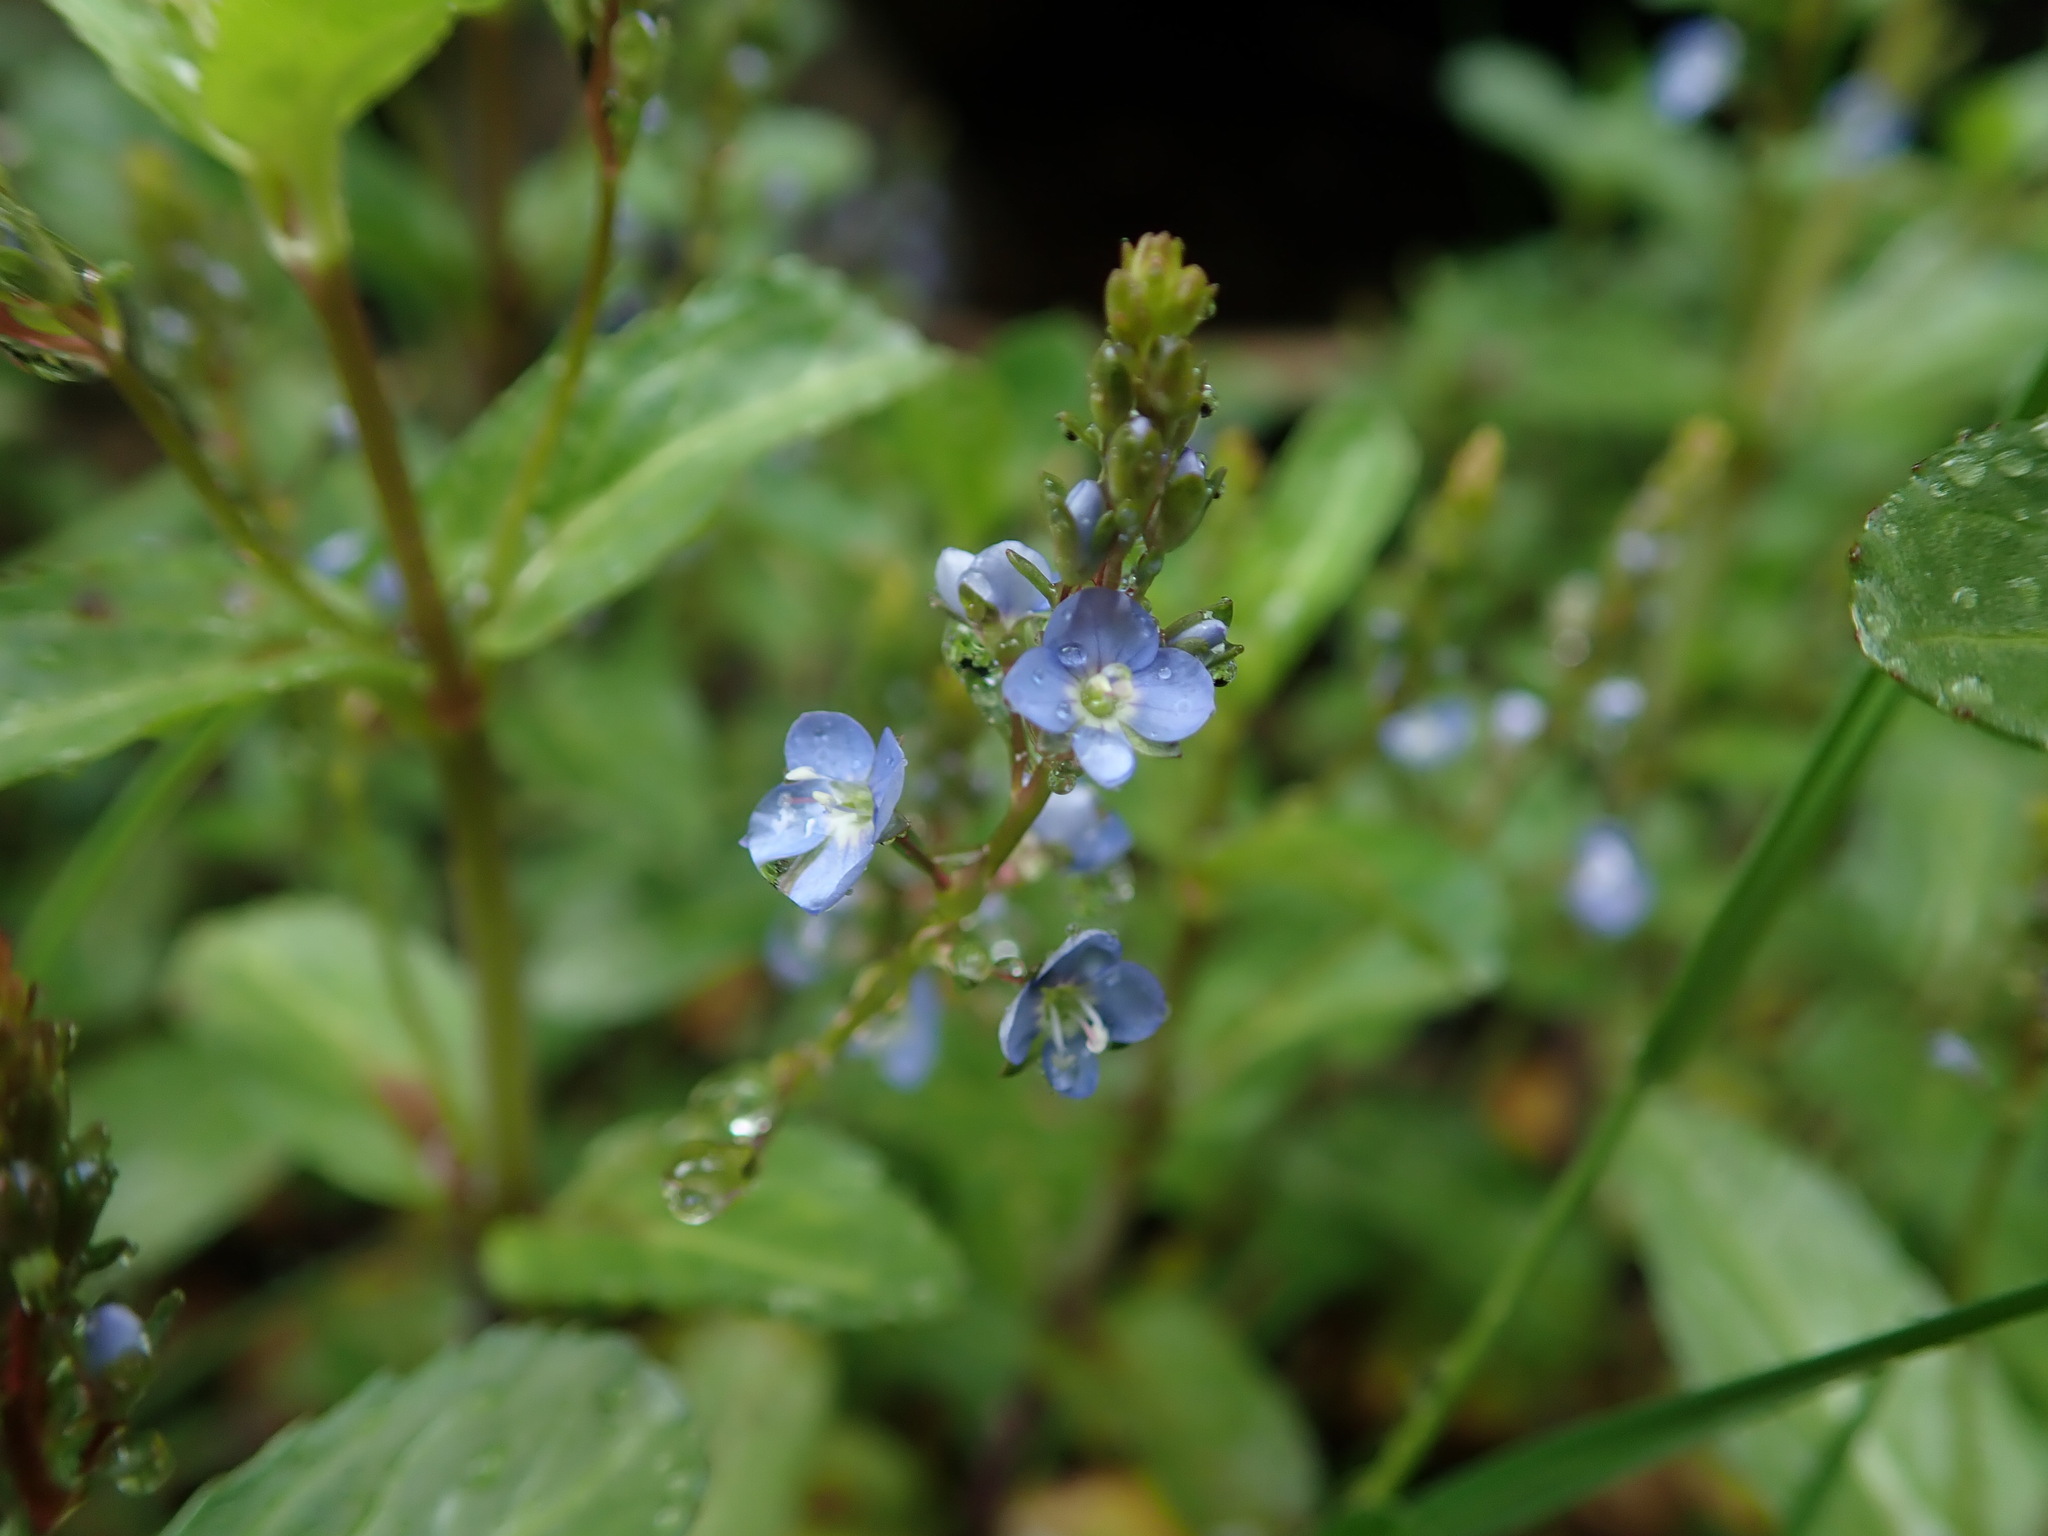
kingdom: Plantae
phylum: Tracheophyta
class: Magnoliopsida
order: Lamiales
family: Plantaginaceae
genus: Veronica
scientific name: Veronica beccabunga
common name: Brooklime
